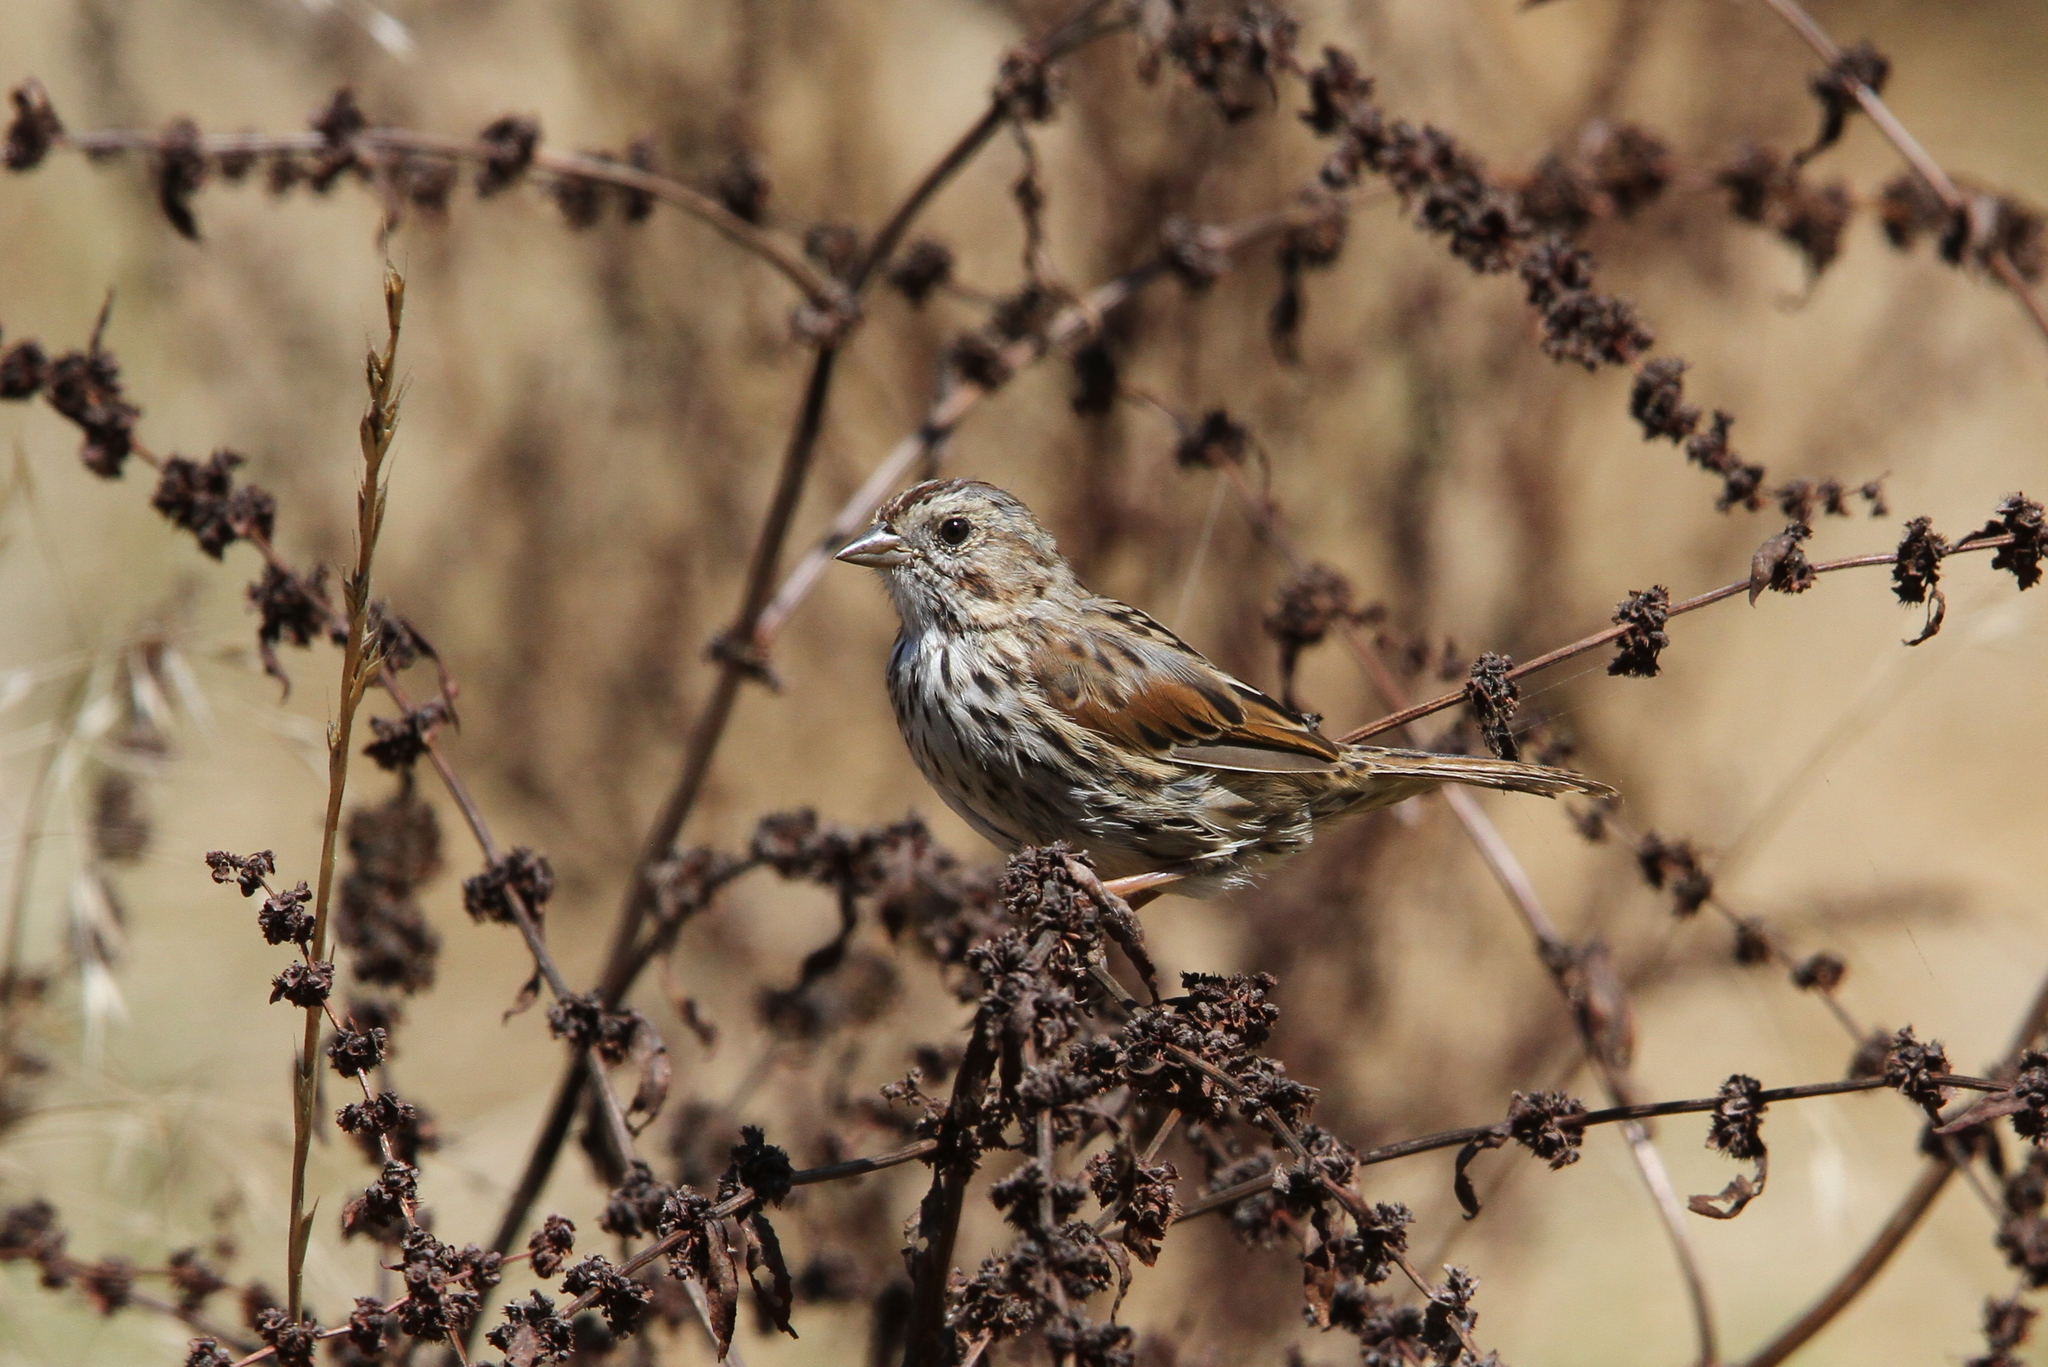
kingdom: Animalia
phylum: Chordata
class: Aves
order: Passeriformes
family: Passerellidae
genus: Melospiza
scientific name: Melospiza melodia
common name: Song sparrow
